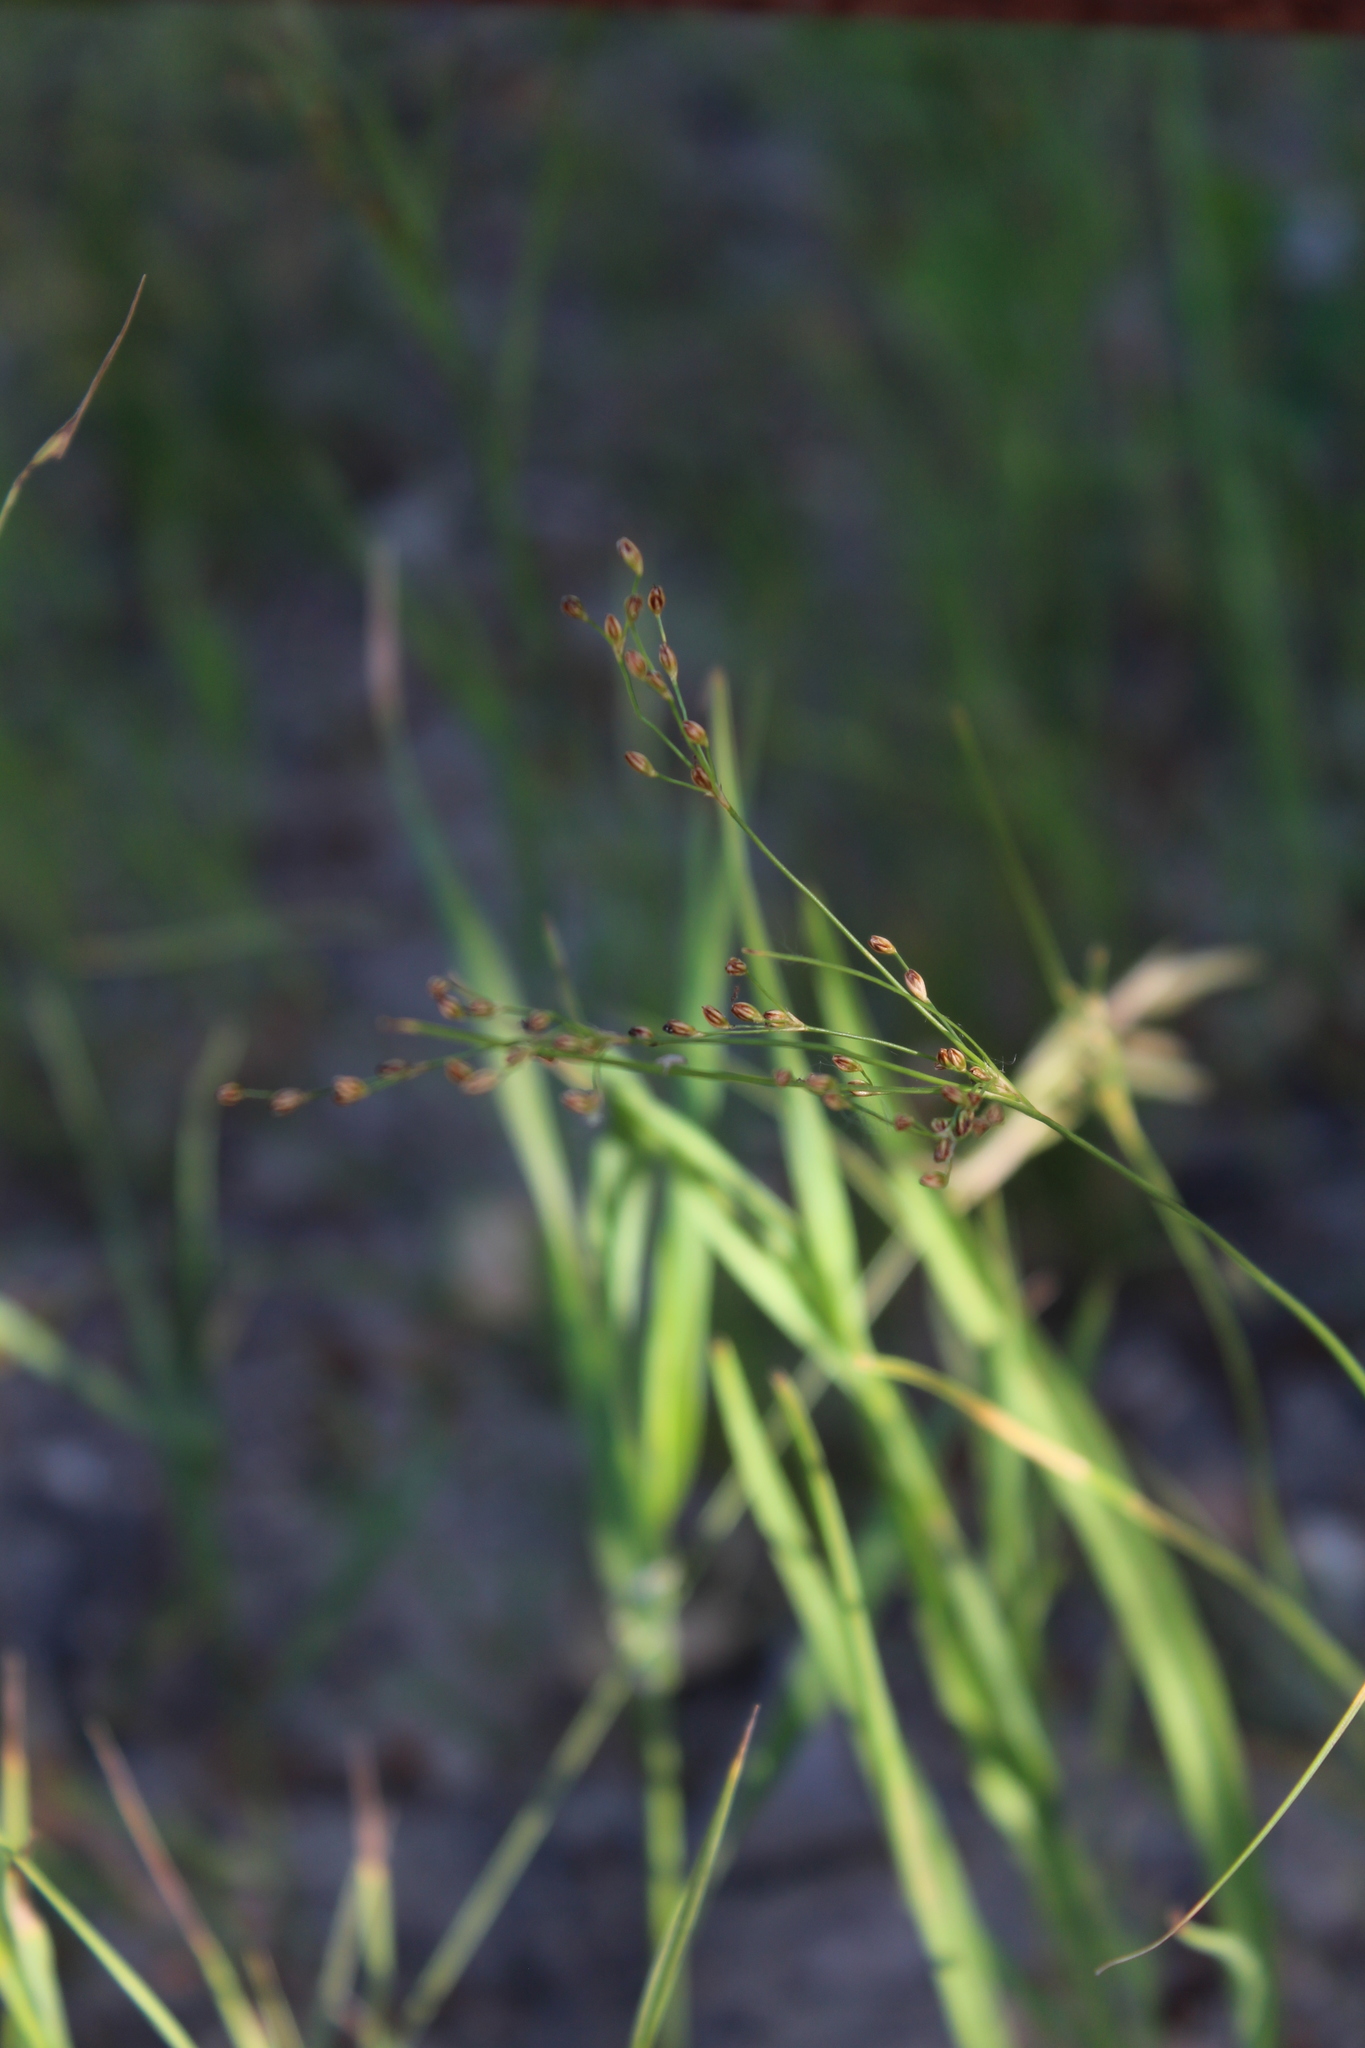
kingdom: Plantae
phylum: Tracheophyta
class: Liliopsida
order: Poales
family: Juncaceae
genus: Juncus
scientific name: Juncus gerardi
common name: Saltmarsh rush
